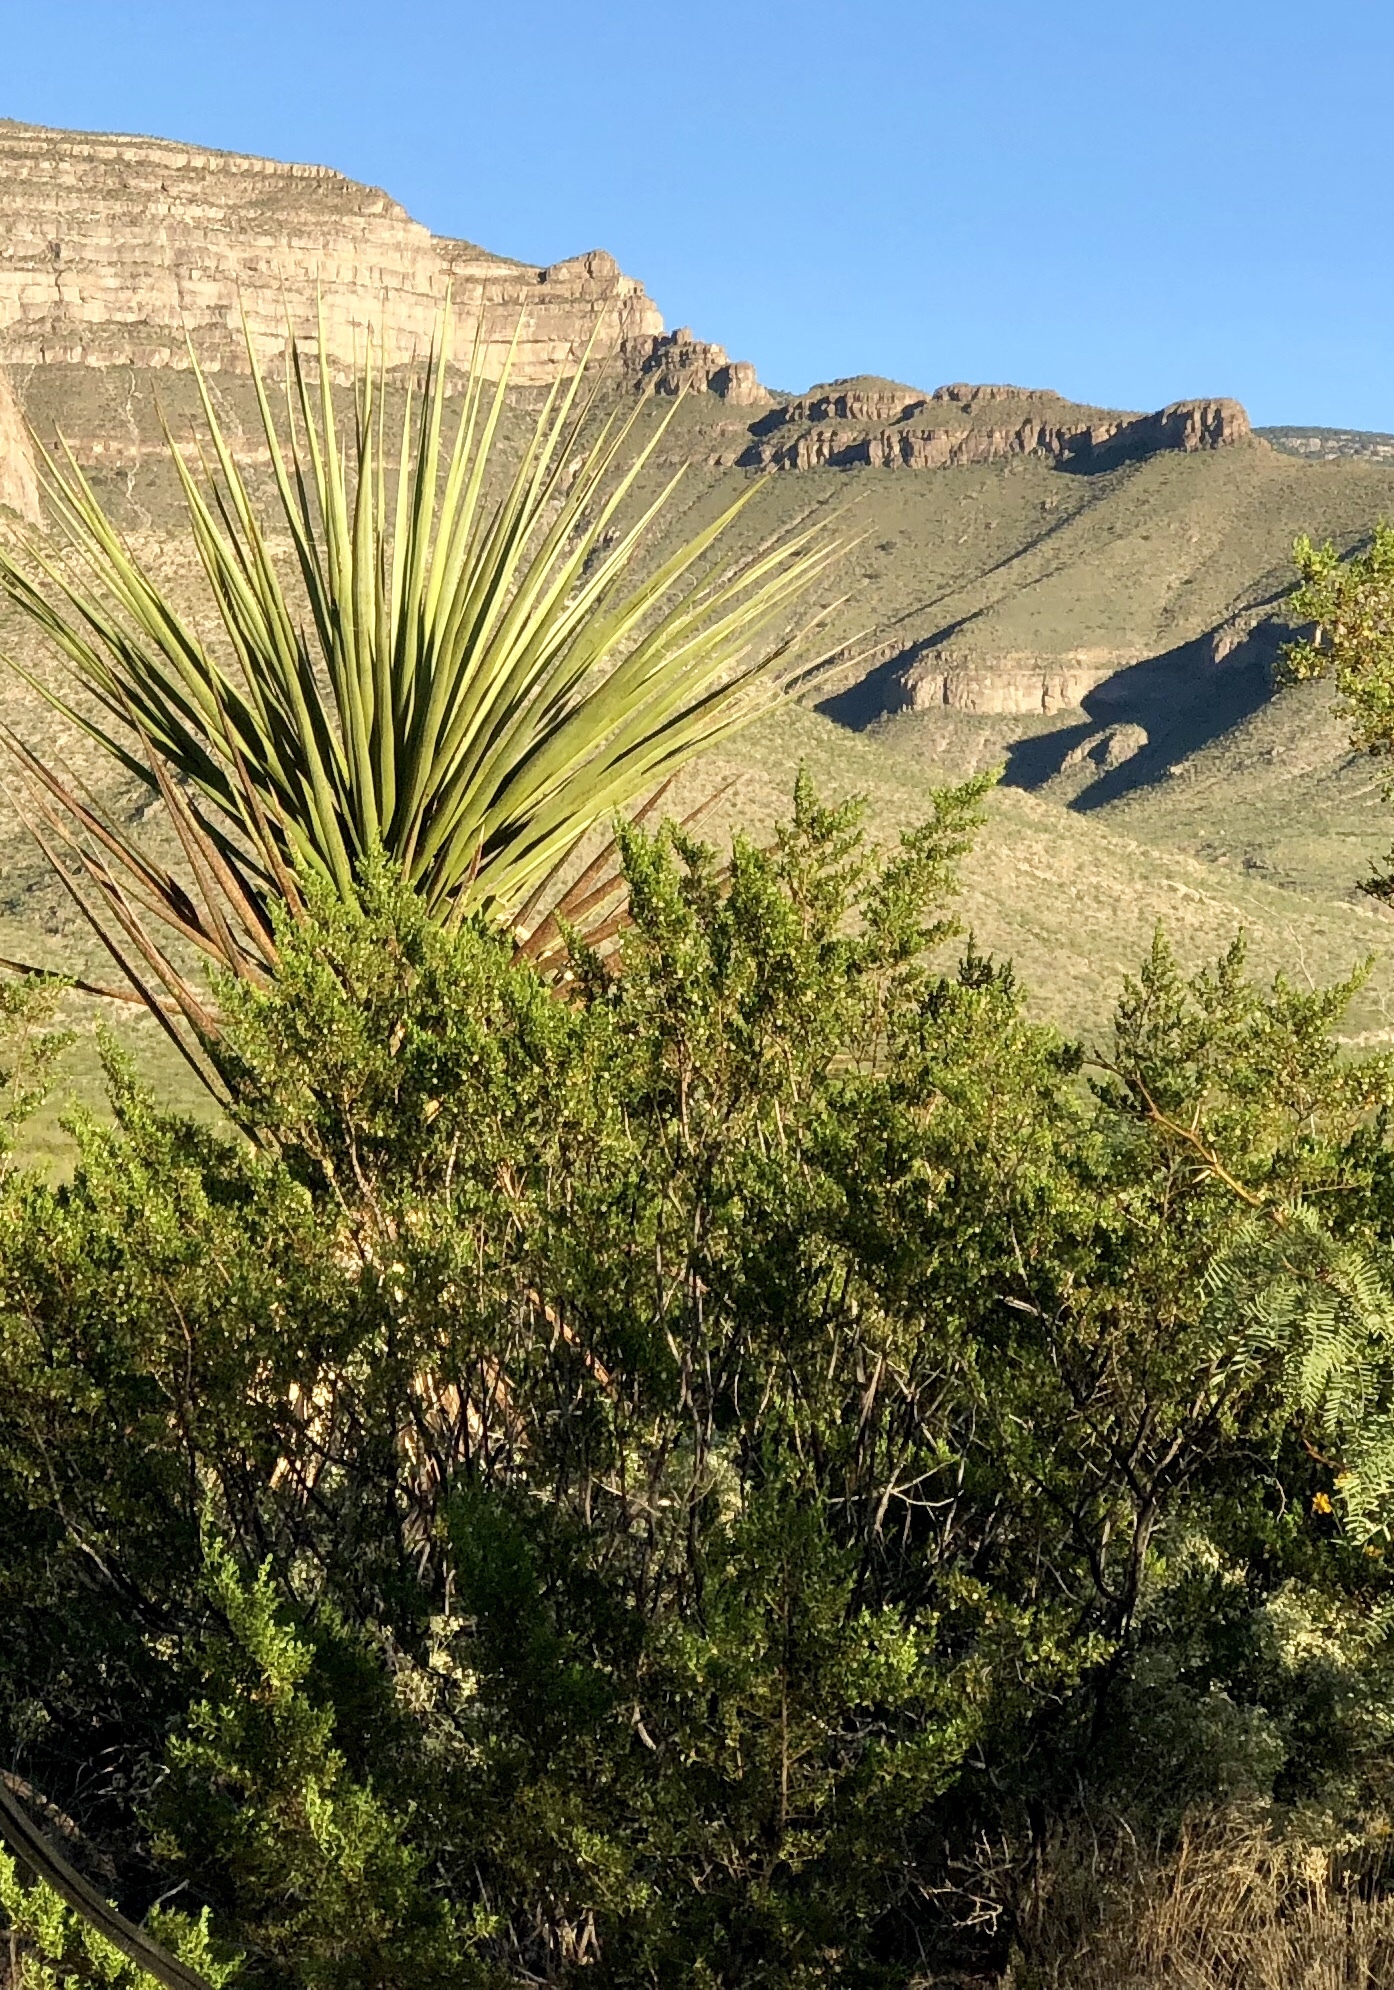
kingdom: Plantae
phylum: Tracheophyta
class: Magnoliopsida
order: Zygophyllales
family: Zygophyllaceae
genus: Larrea
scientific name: Larrea tridentata
